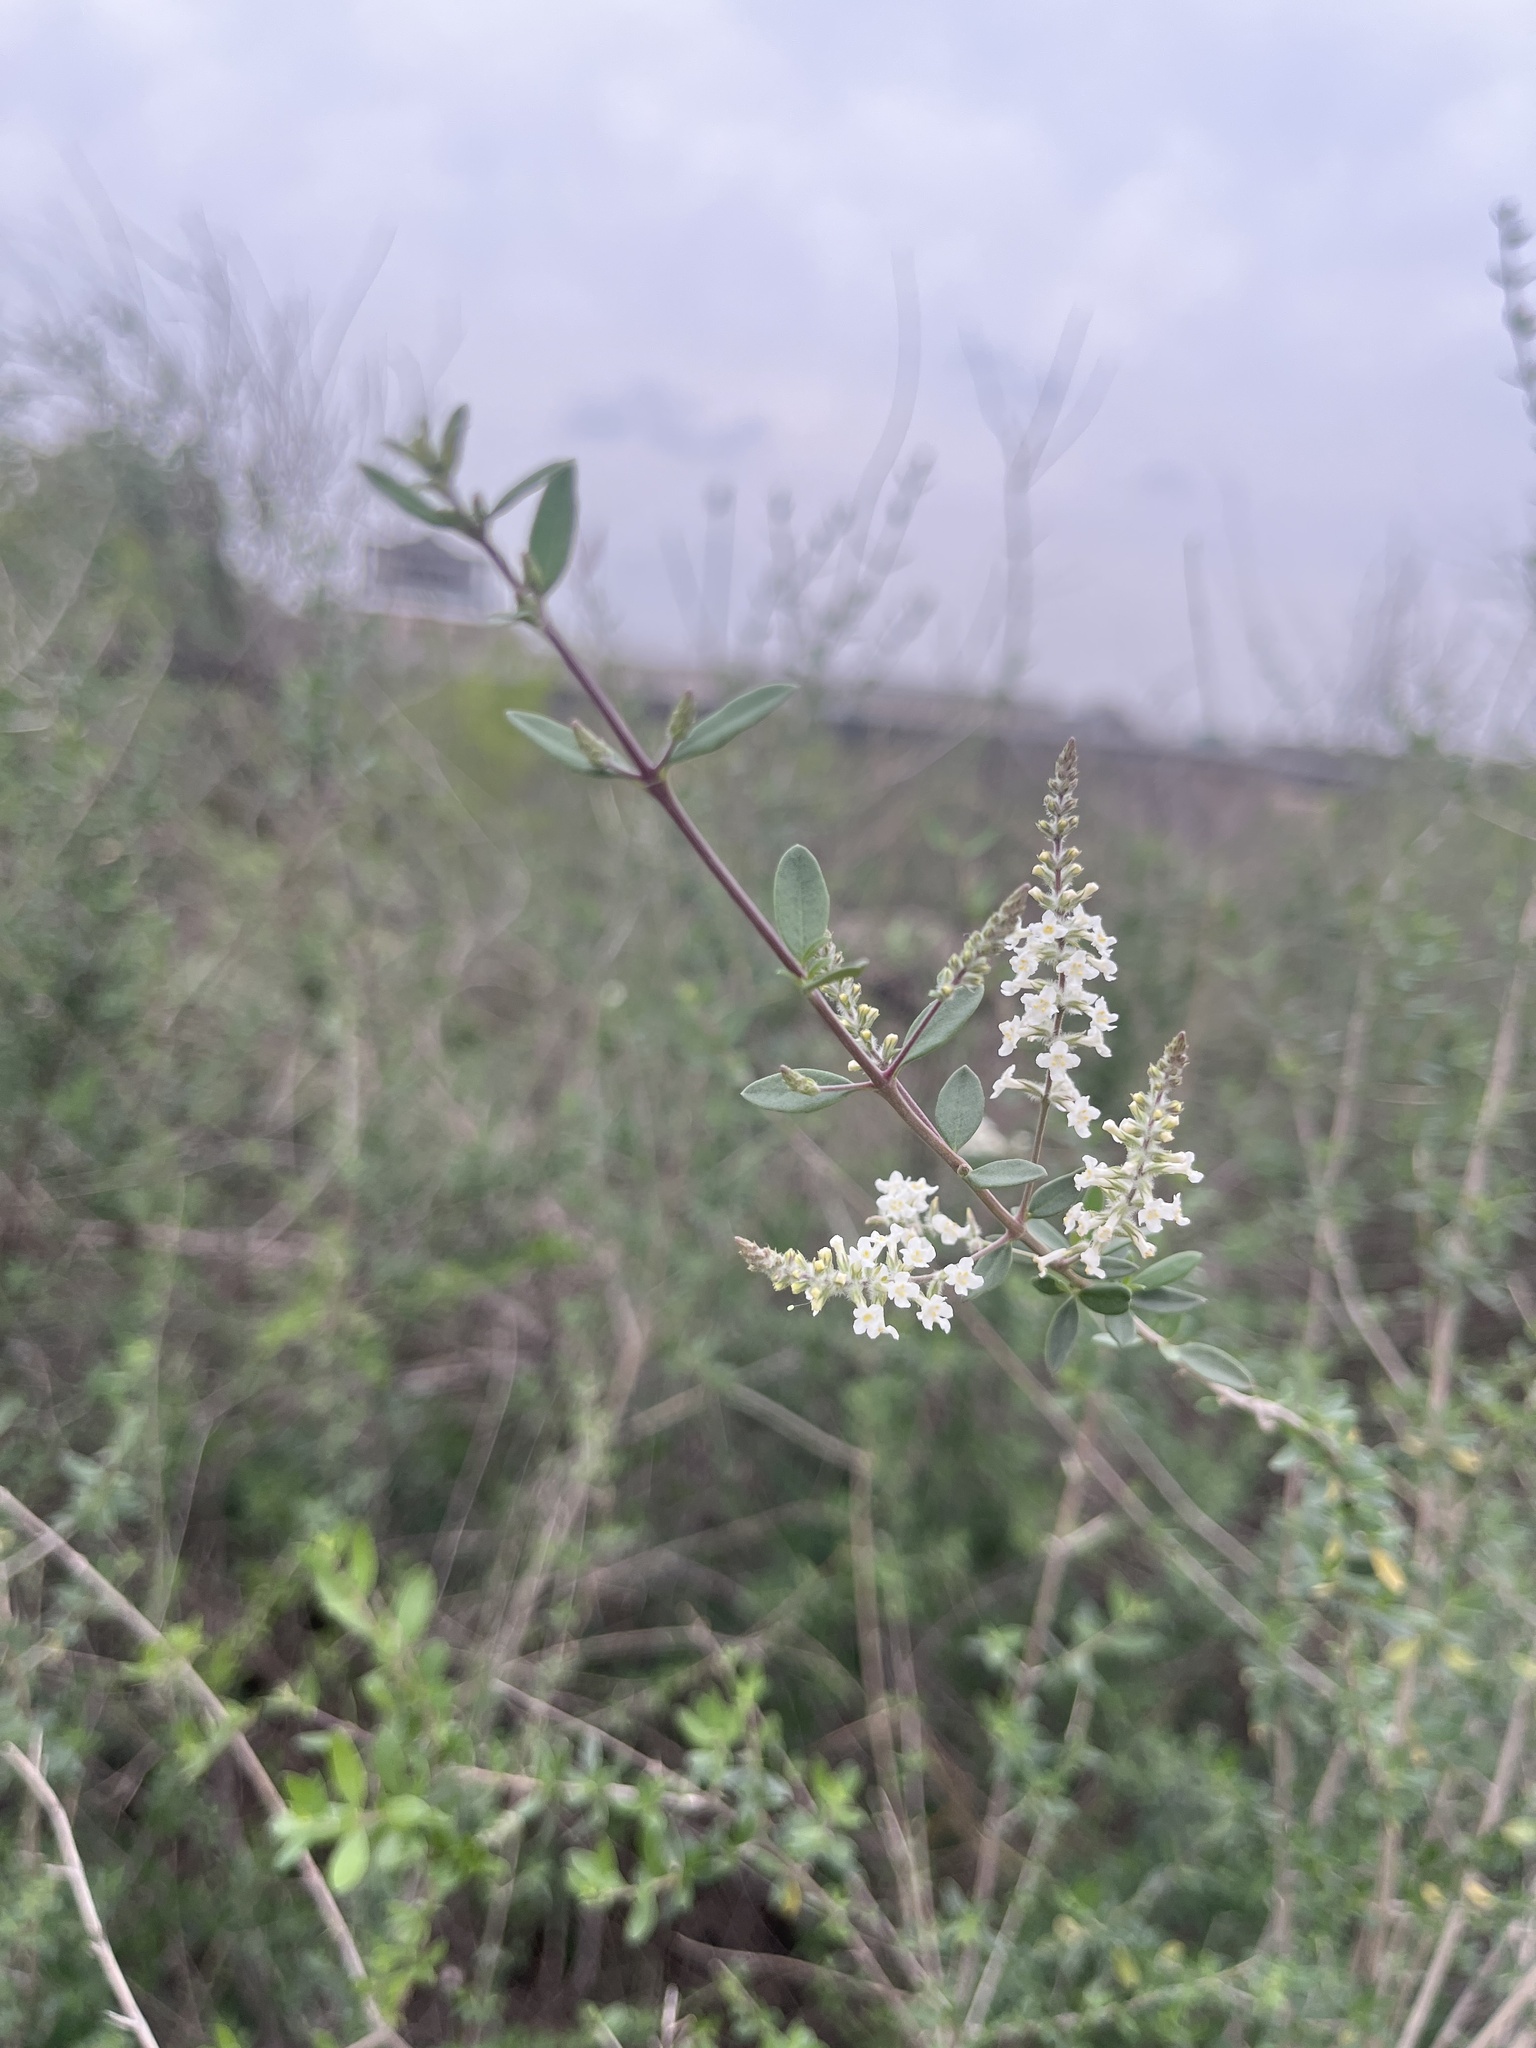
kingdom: Plantae
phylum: Tracheophyta
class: Magnoliopsida
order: Lamiales
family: Verbenaceae
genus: Aloysia
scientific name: Aloysia gratissima
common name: Common bee-brush
